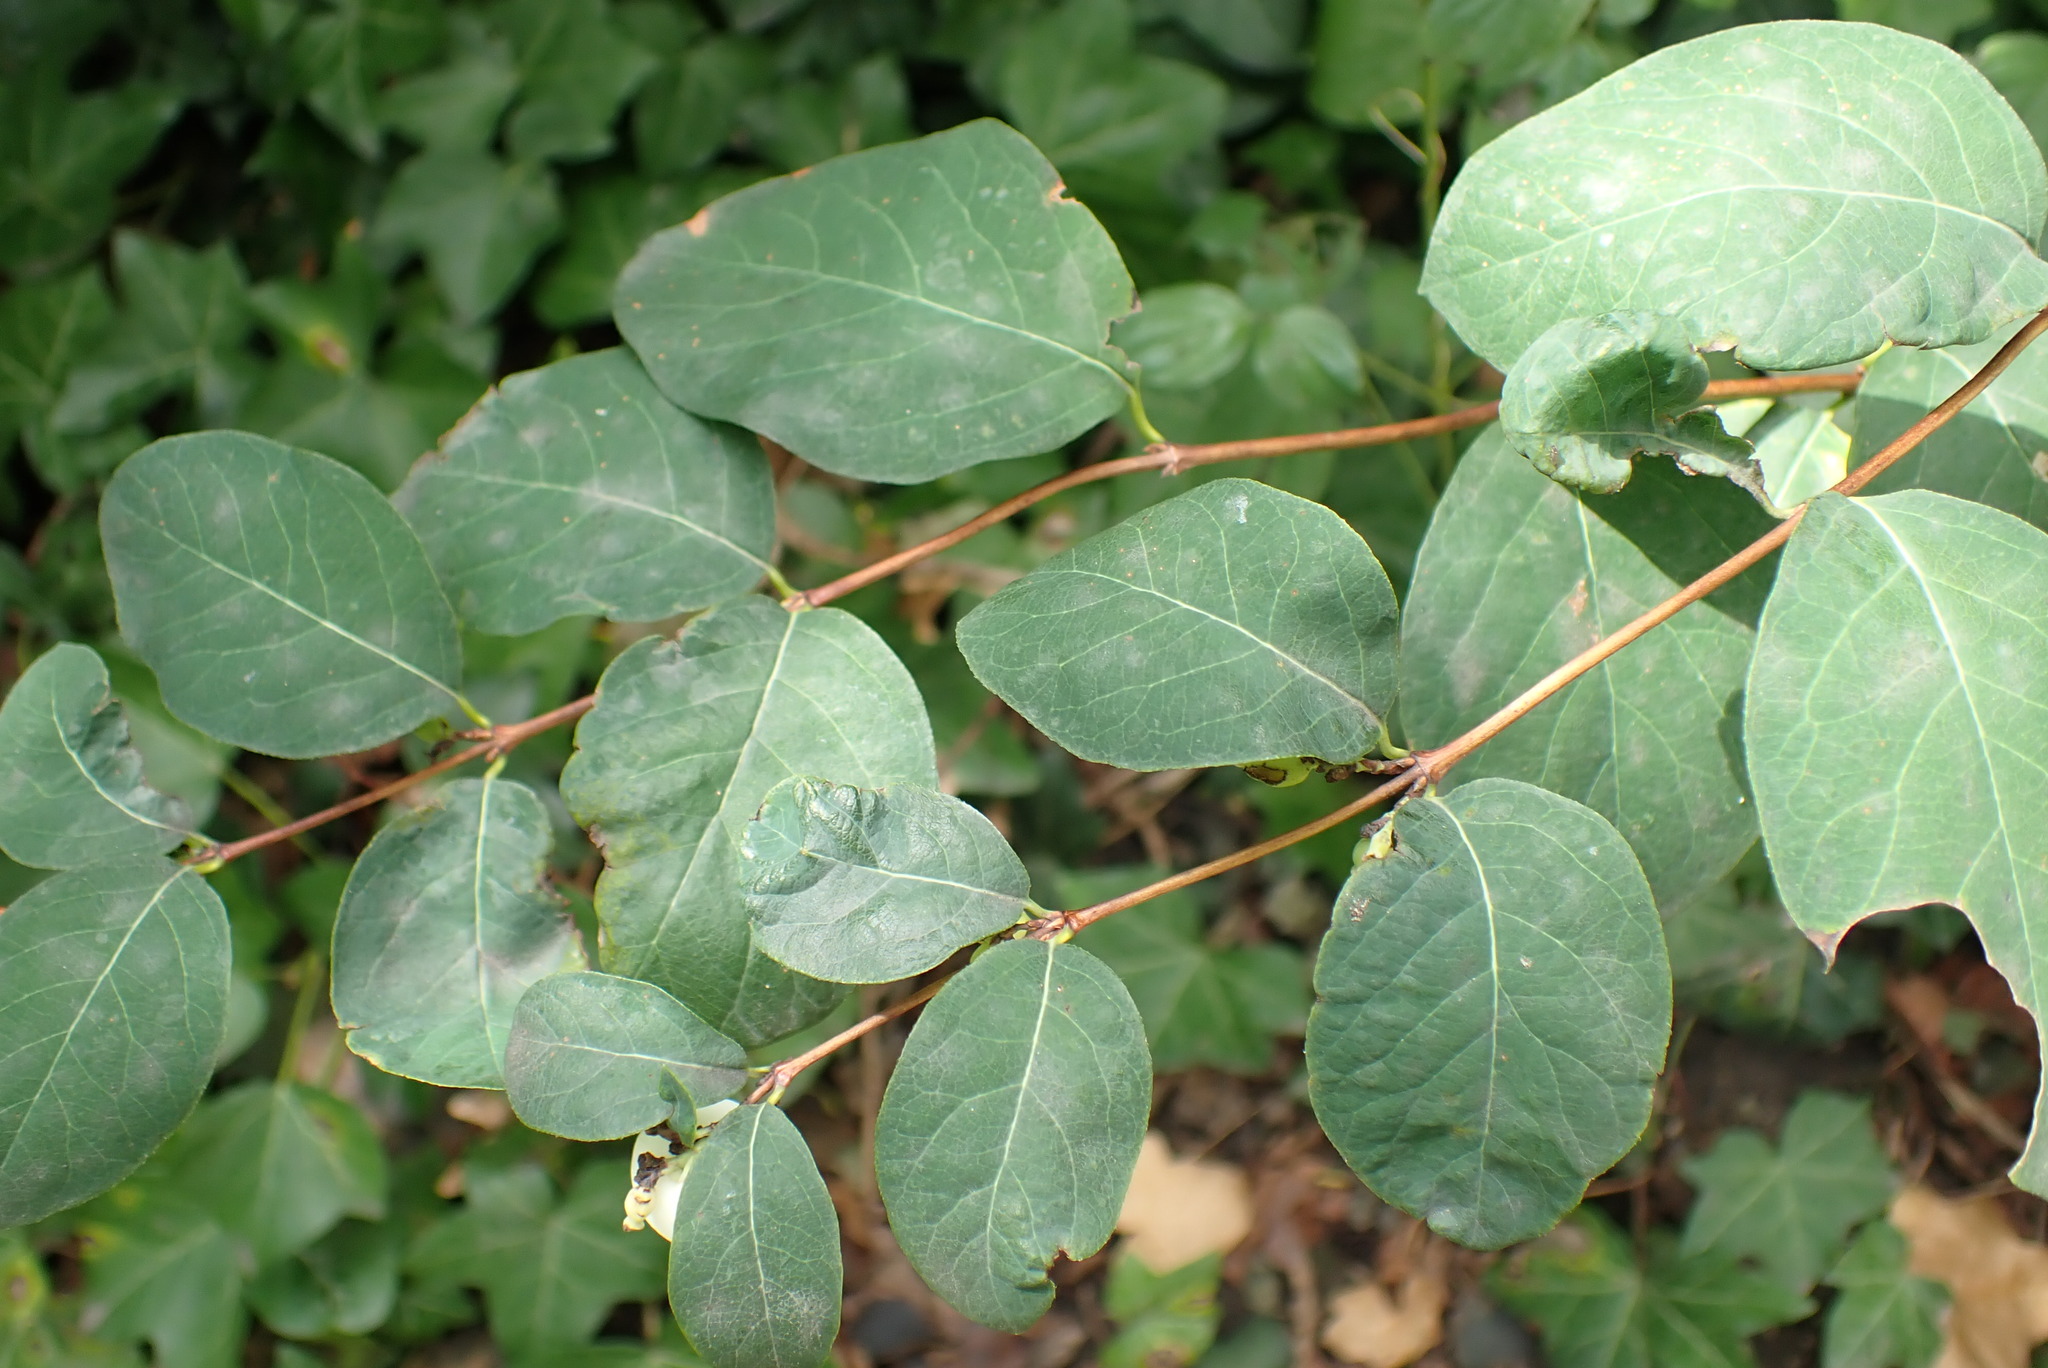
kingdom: Plantae
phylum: Tracheophyta
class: Magnoliopsida
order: Dipsacales
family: Caprifoliaceae
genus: Symphoricarpos
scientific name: Symphoricarpos albus
